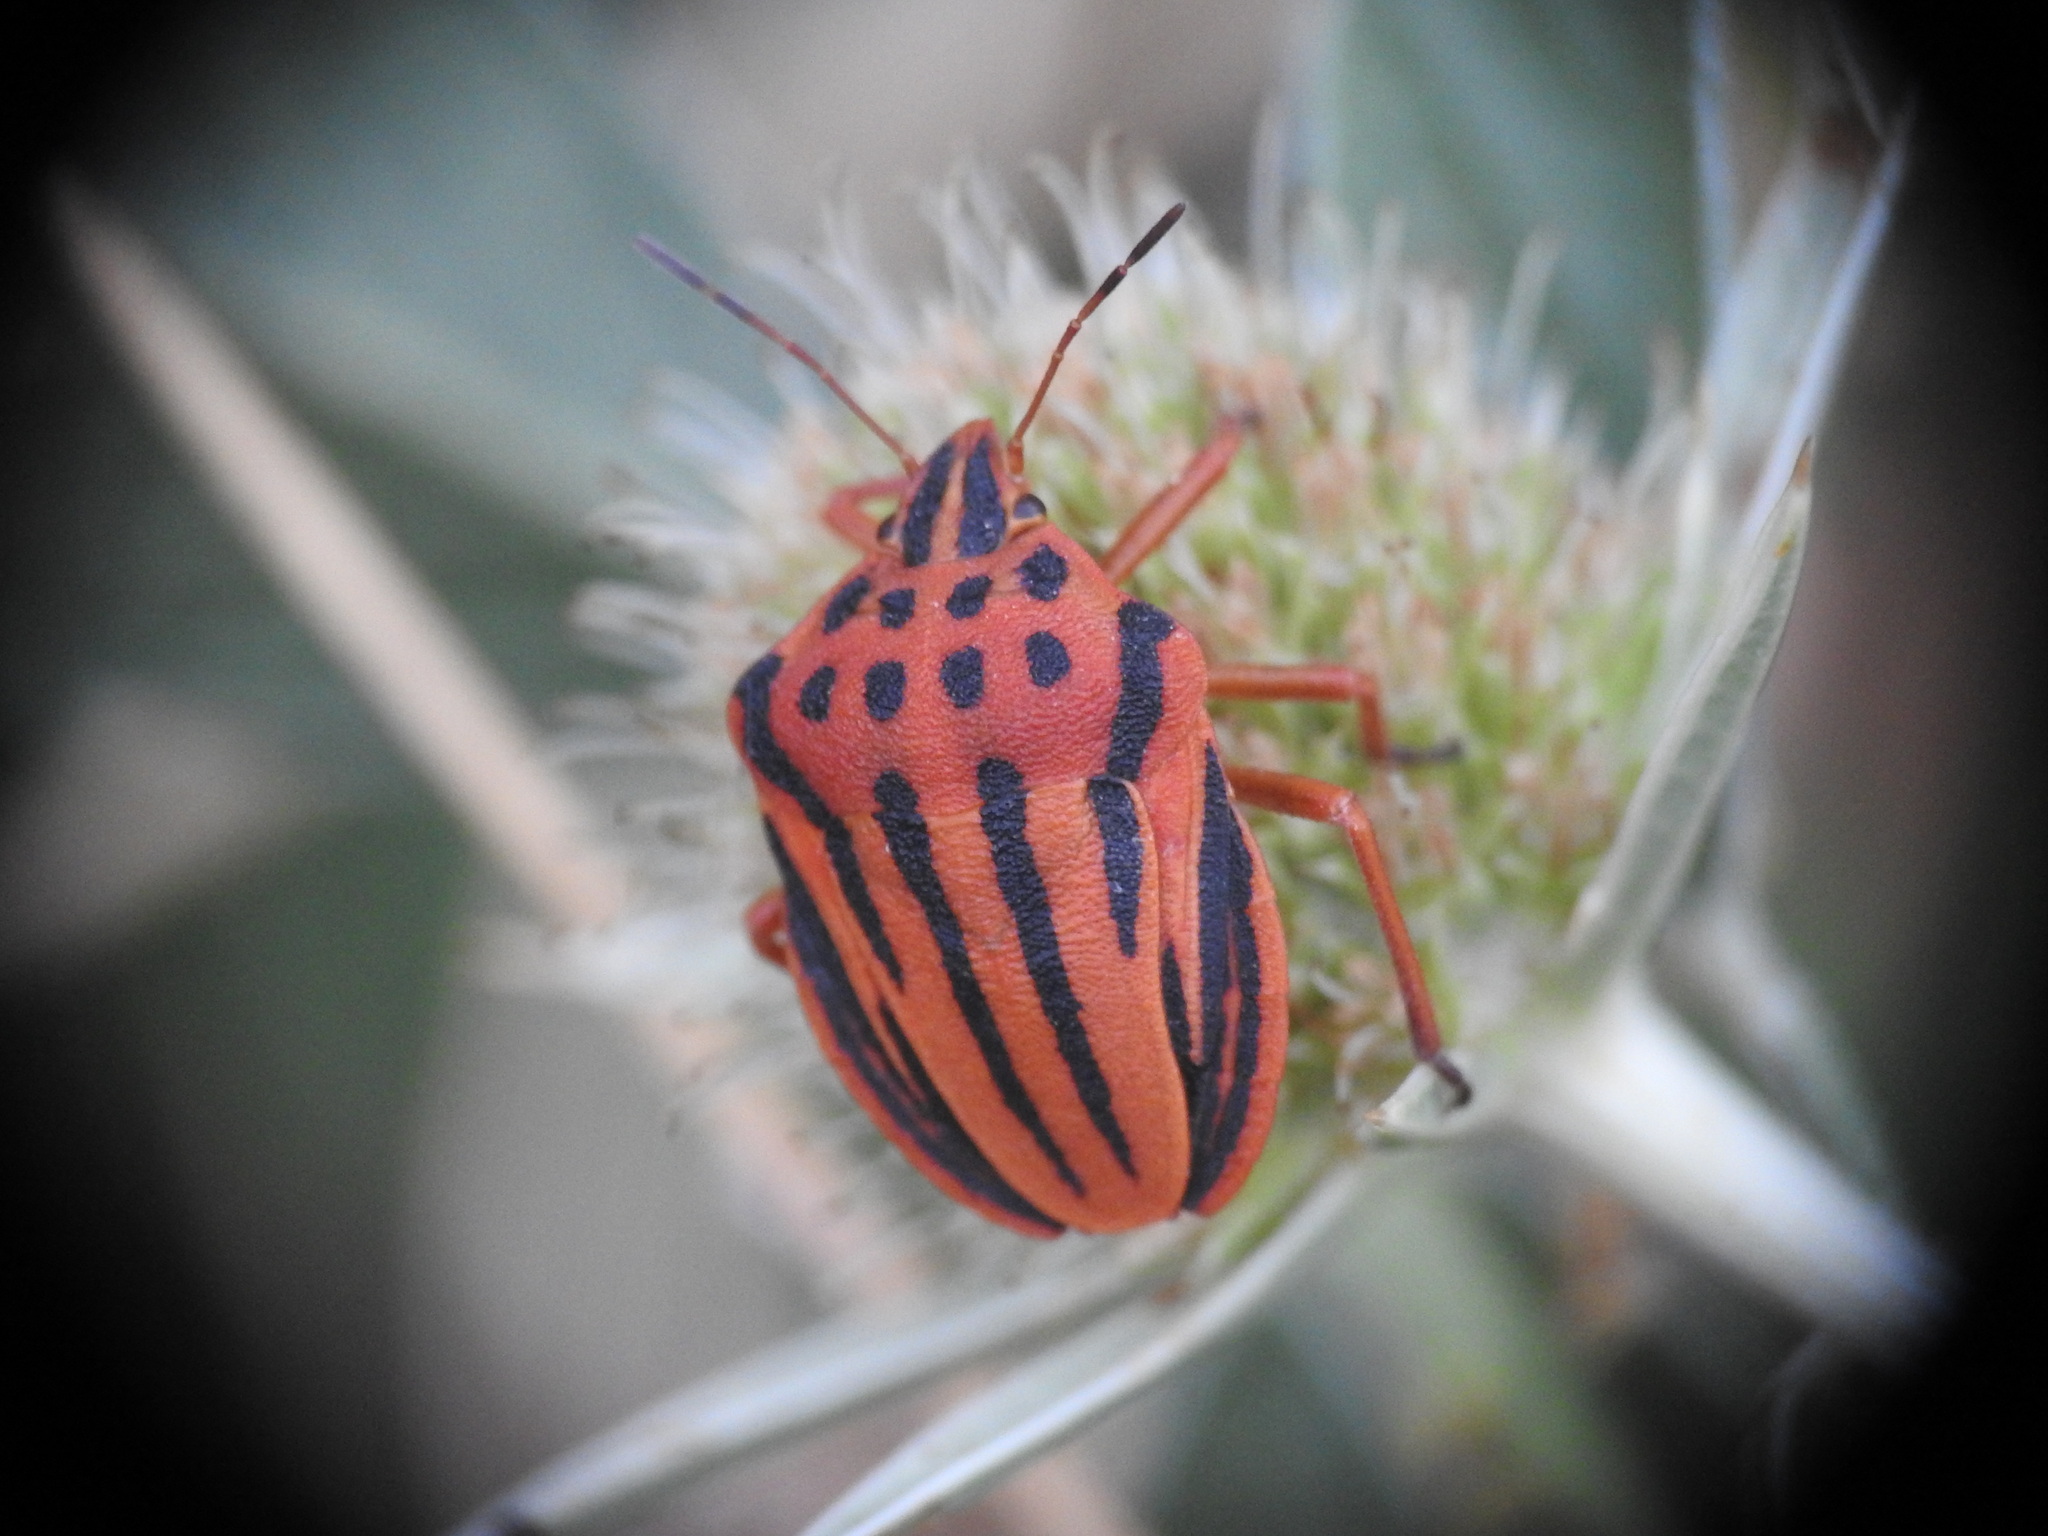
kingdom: Animalia
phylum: Arthropoda
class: Insecta
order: Hemiptera
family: Pentatomidae
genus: Graphosoma
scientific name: Graphosoma semipunctatum
